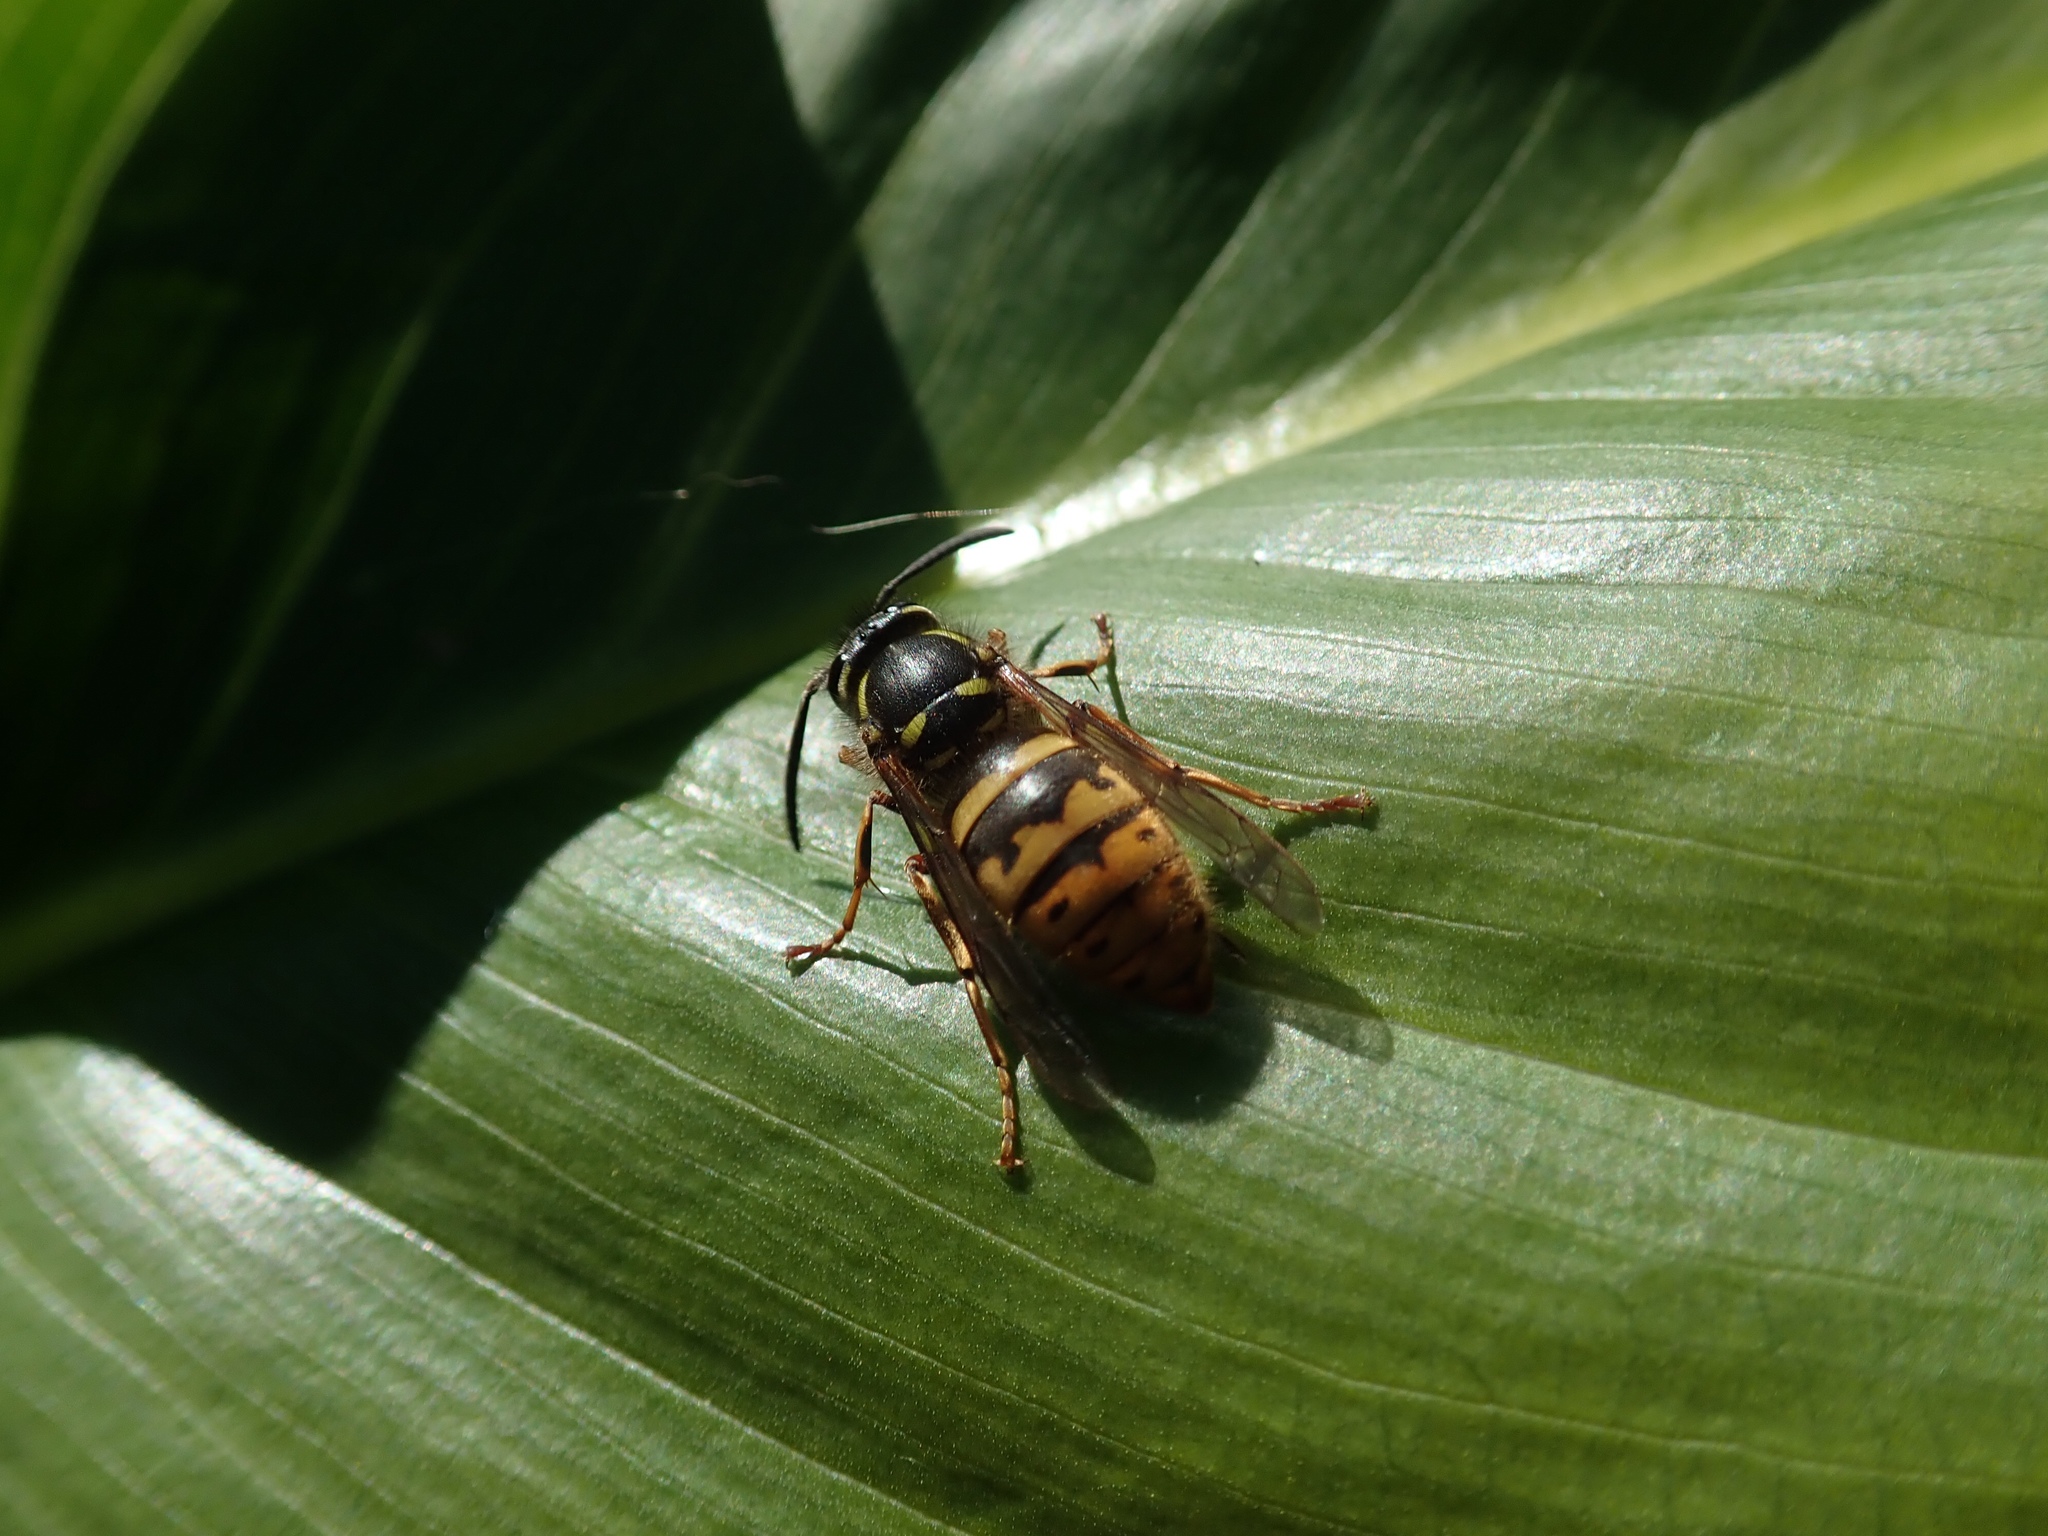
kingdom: Animalia
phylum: Arthropoda
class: Insecta
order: Hymenoptera
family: Vespidae
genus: Vespula
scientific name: Vespula vulgaris
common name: Common wasp
